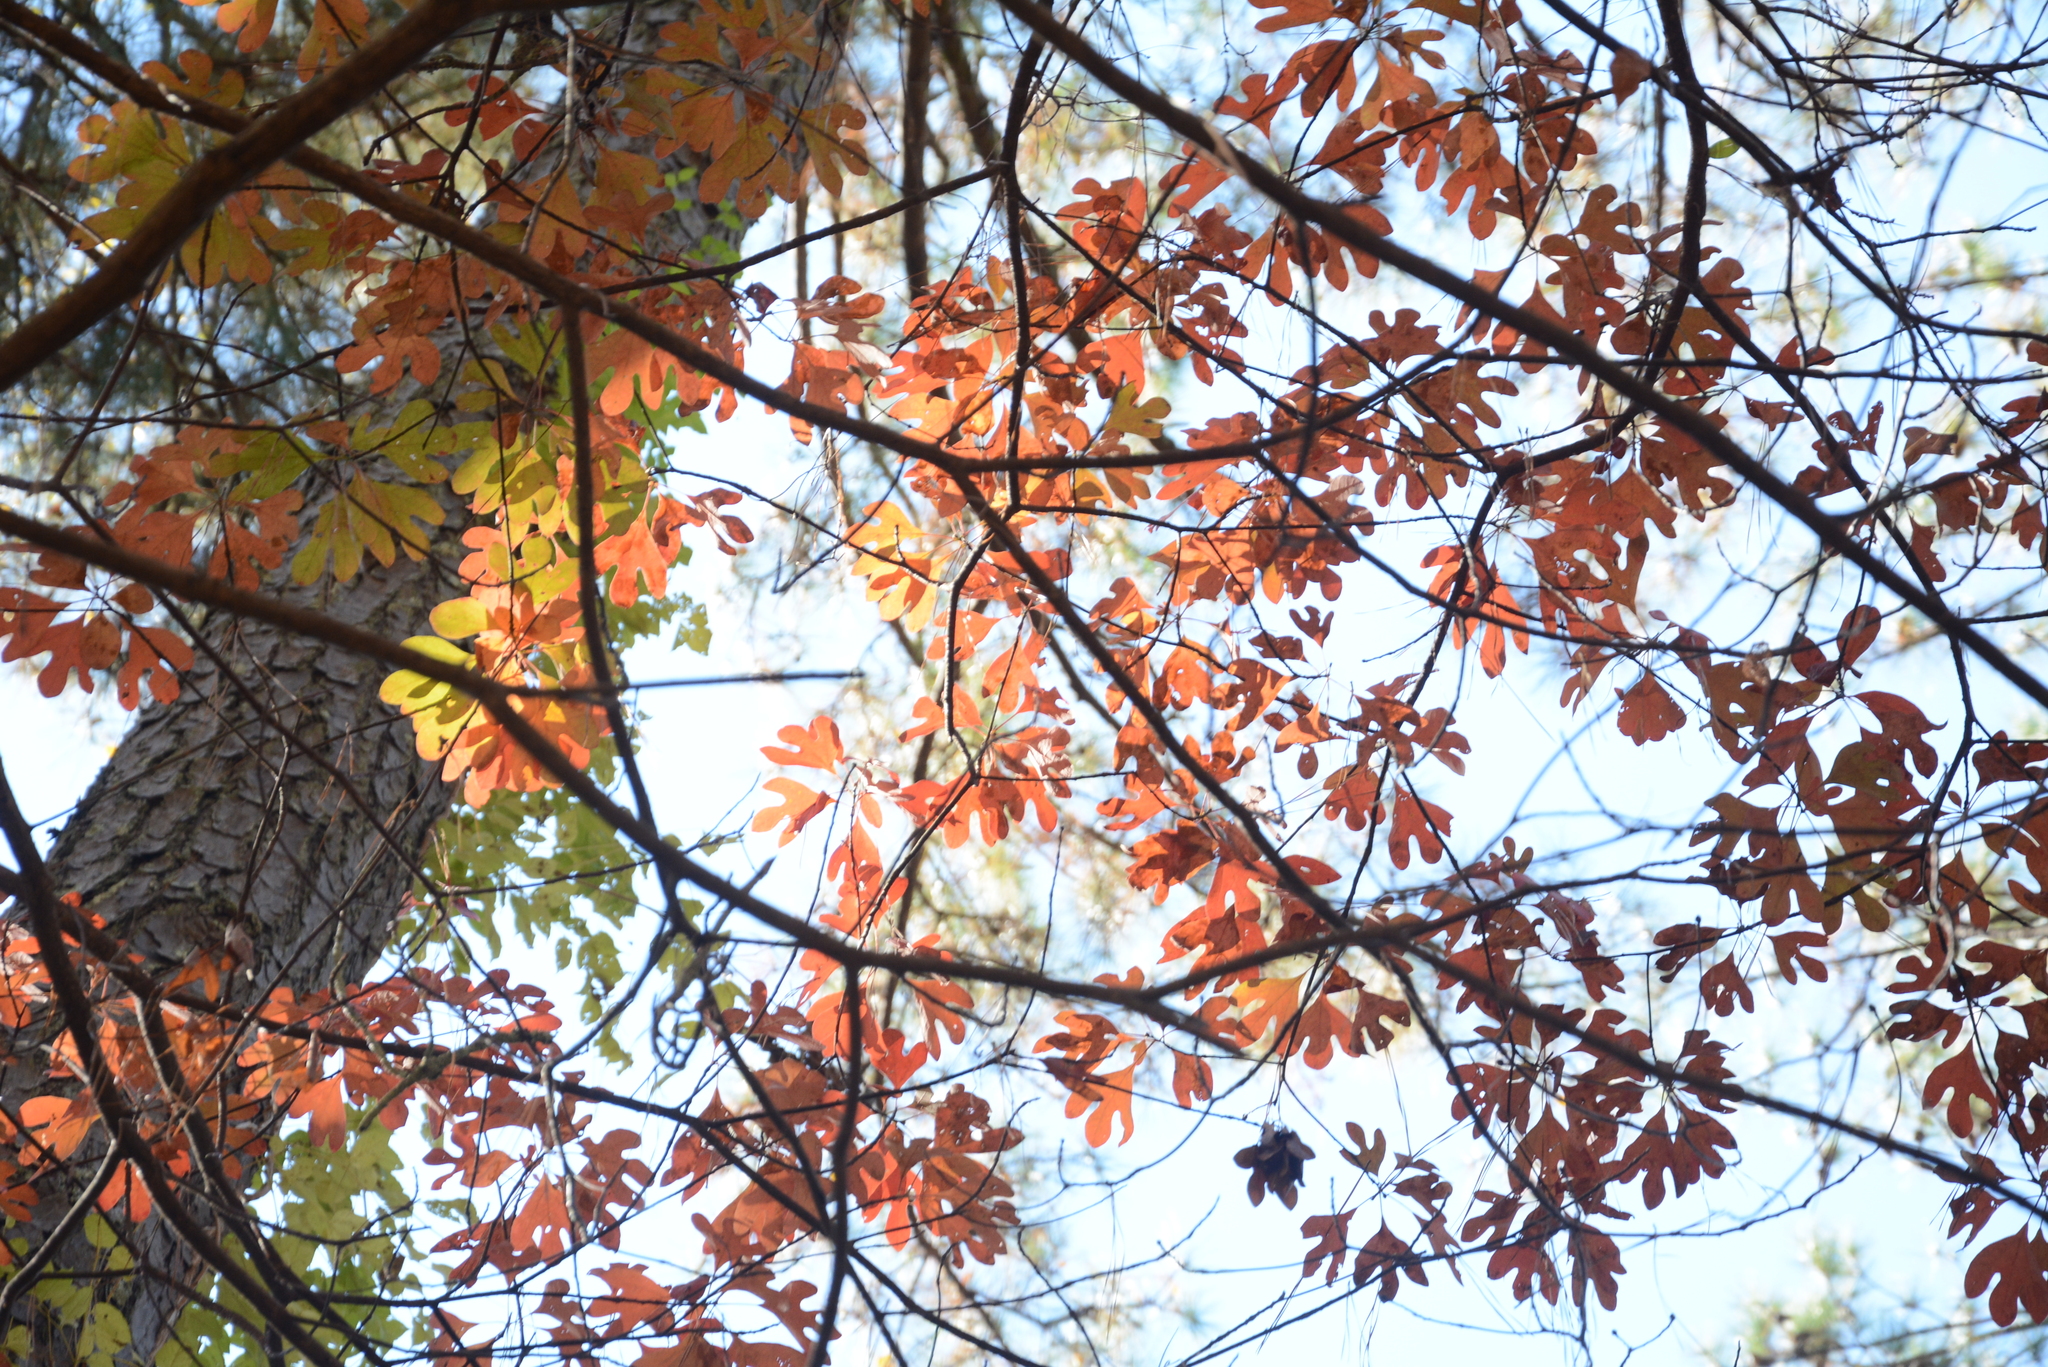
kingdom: Plantae
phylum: Tracheophyta
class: Magnoliopsida
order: Laurales
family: Lauraceae
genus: Sassafras
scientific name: Sassafras albidum
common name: Sassafras
